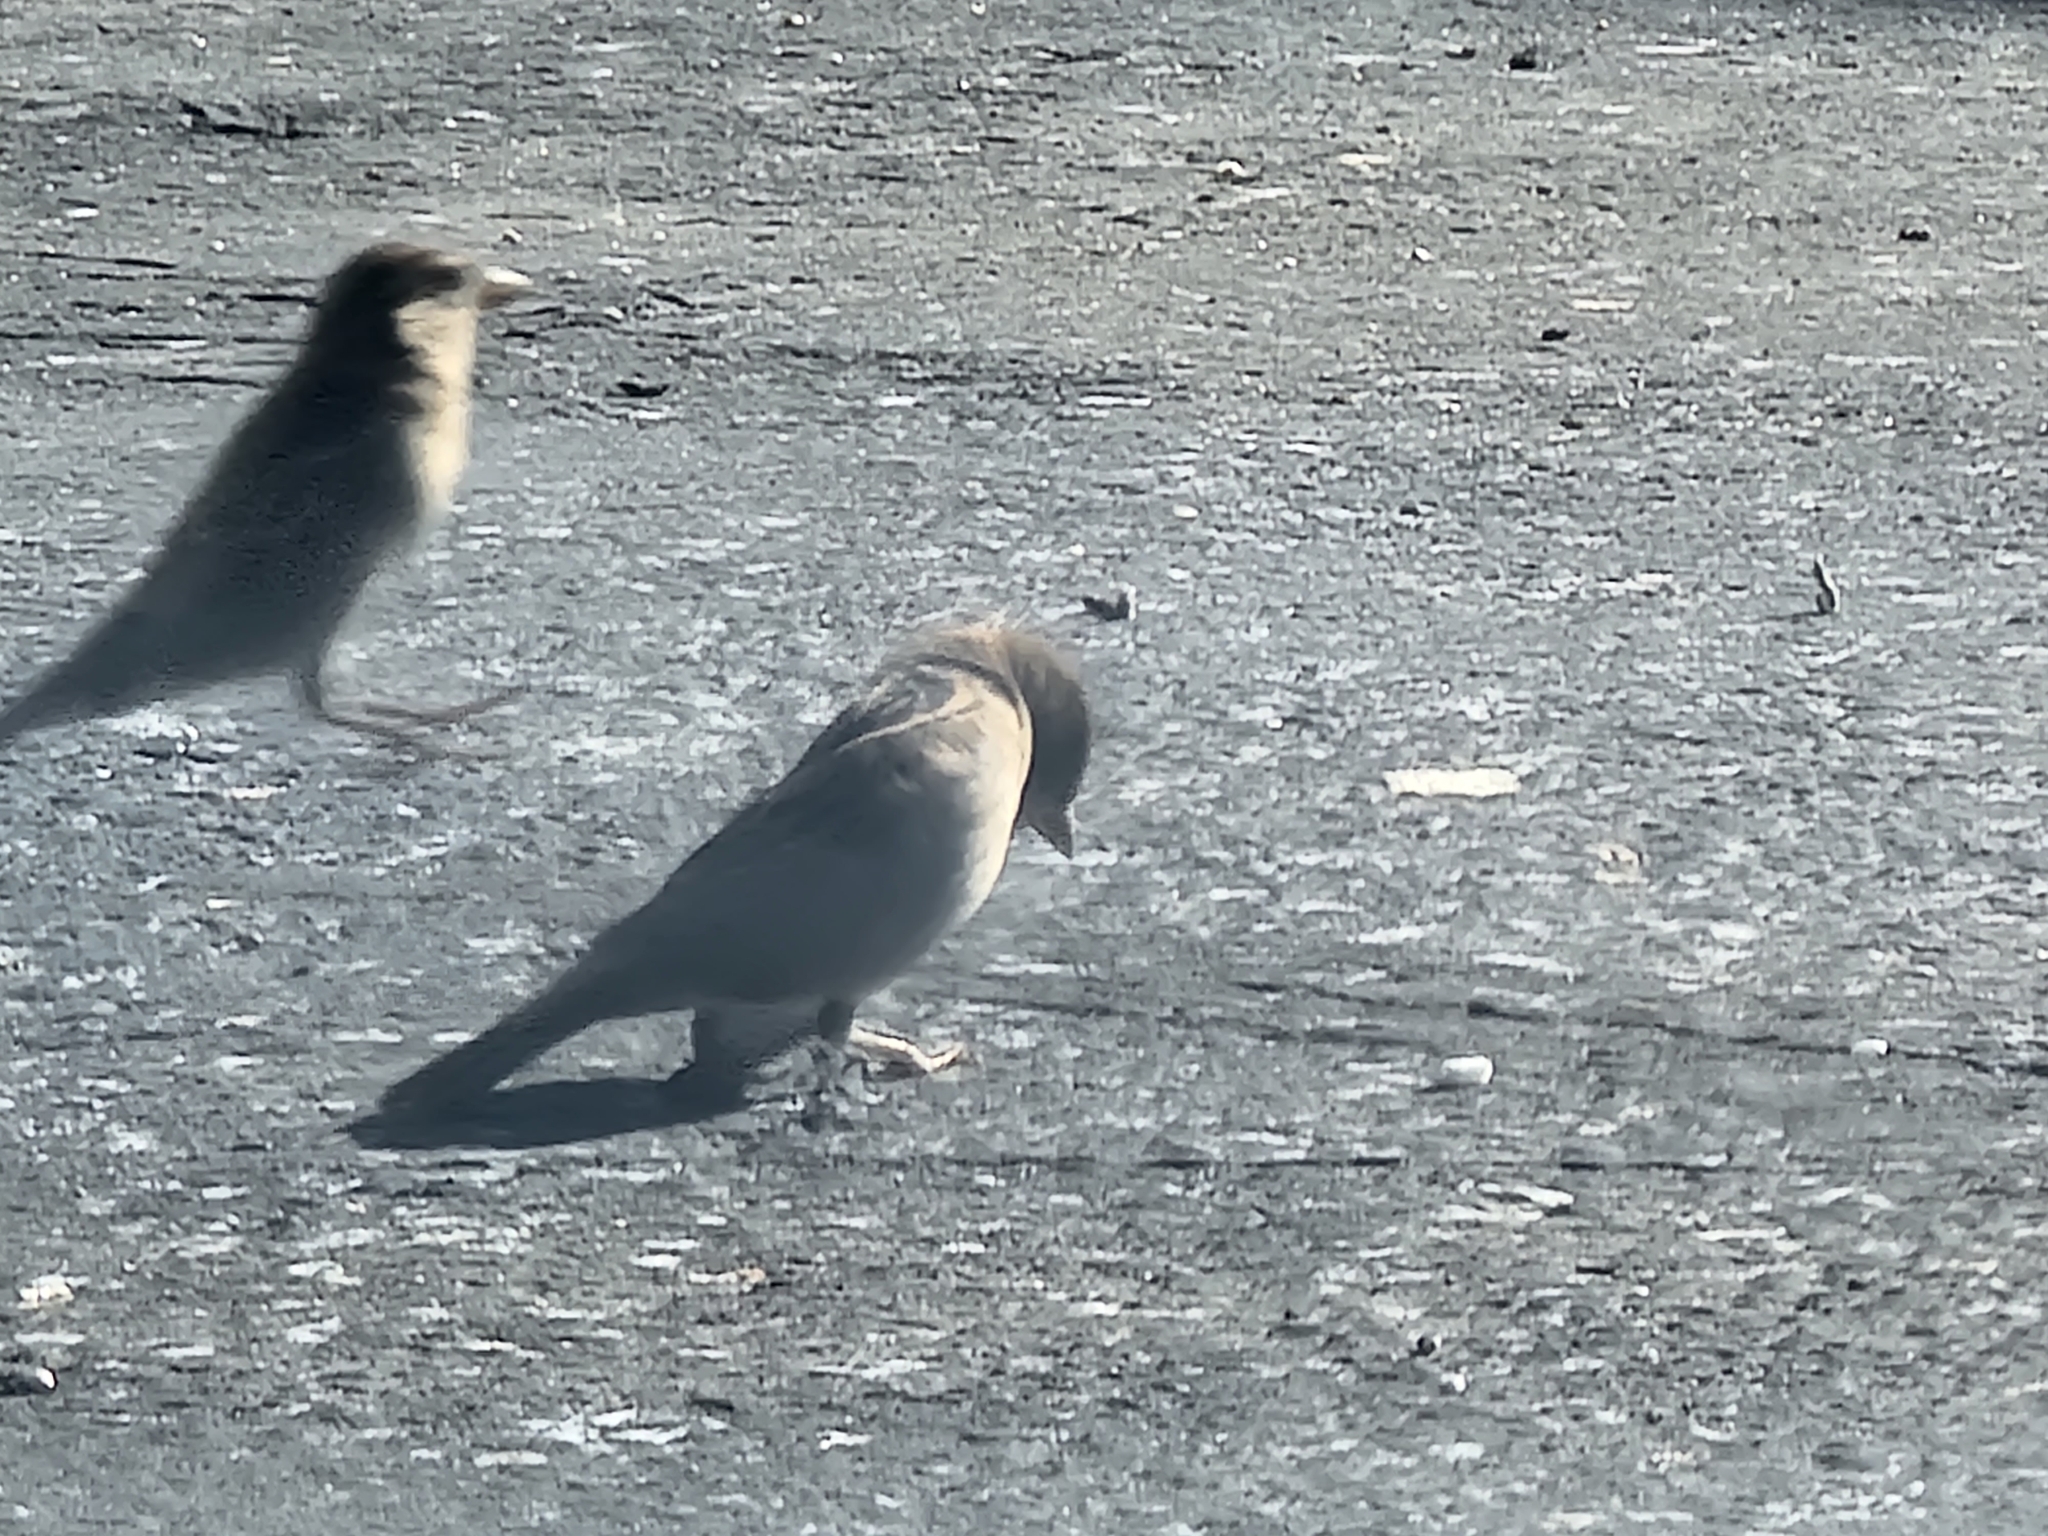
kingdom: Animalia
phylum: Chordata
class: Aves
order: Passeriformes
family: Passeridae
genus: Passer
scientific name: Passer domesticus
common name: House sparrow
